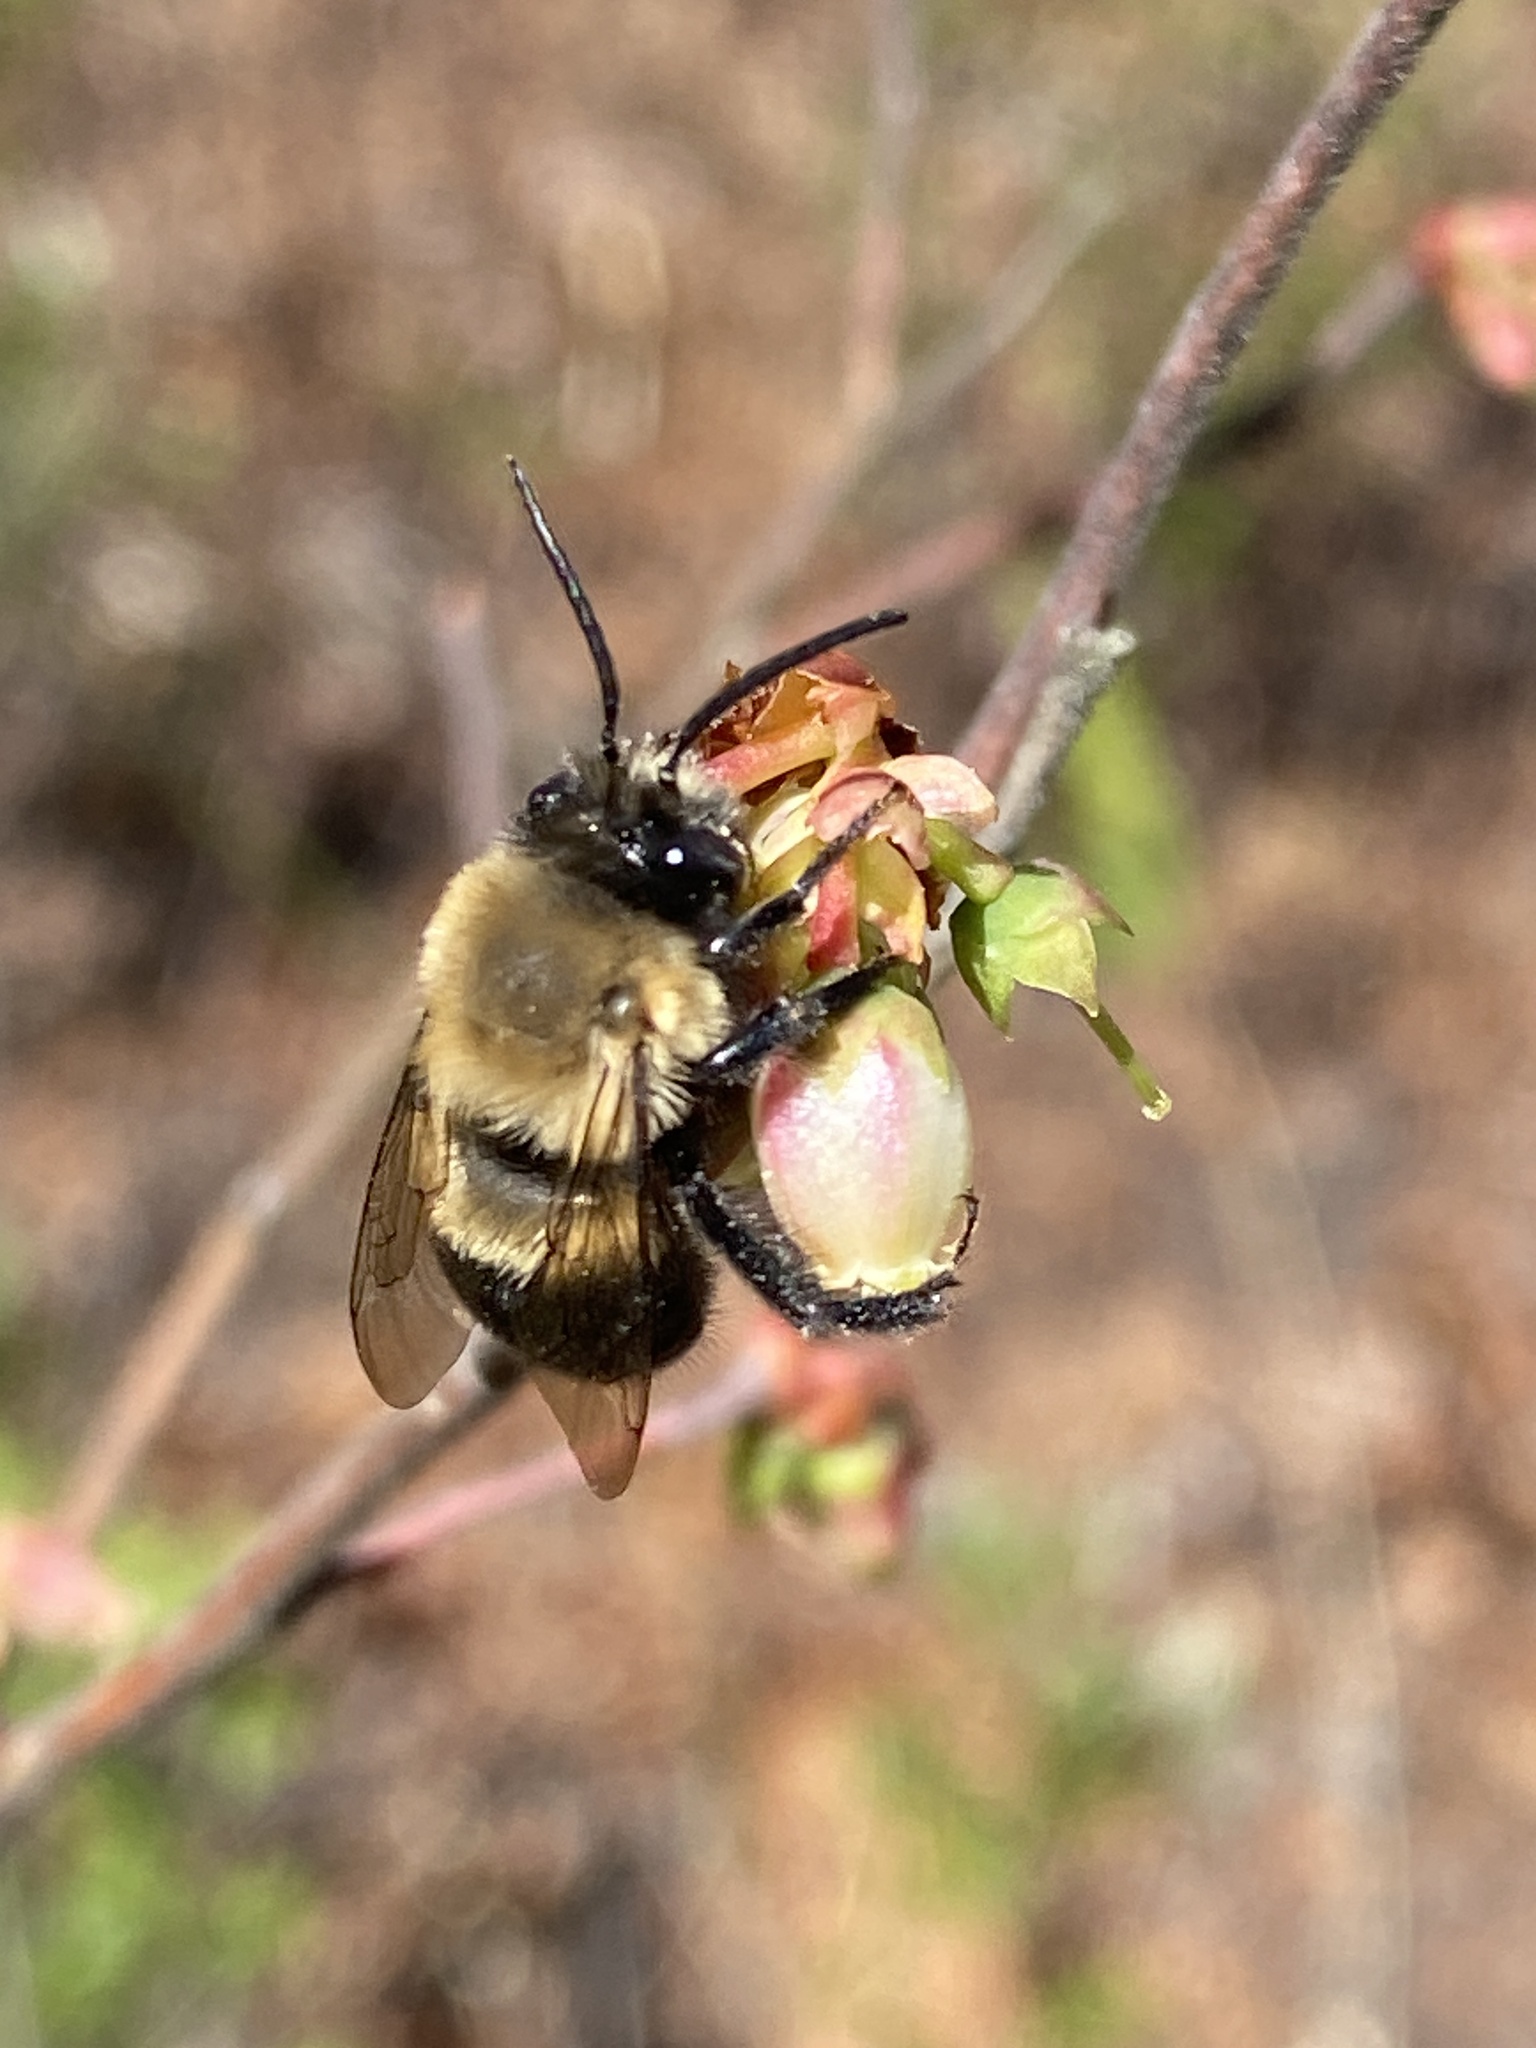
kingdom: Animalia
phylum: Arthropoda
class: Insecta
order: Hymenoptera
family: Apidae
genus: Habropoda
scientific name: Habropoda laboriosa
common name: Southeastern blueberry bee
